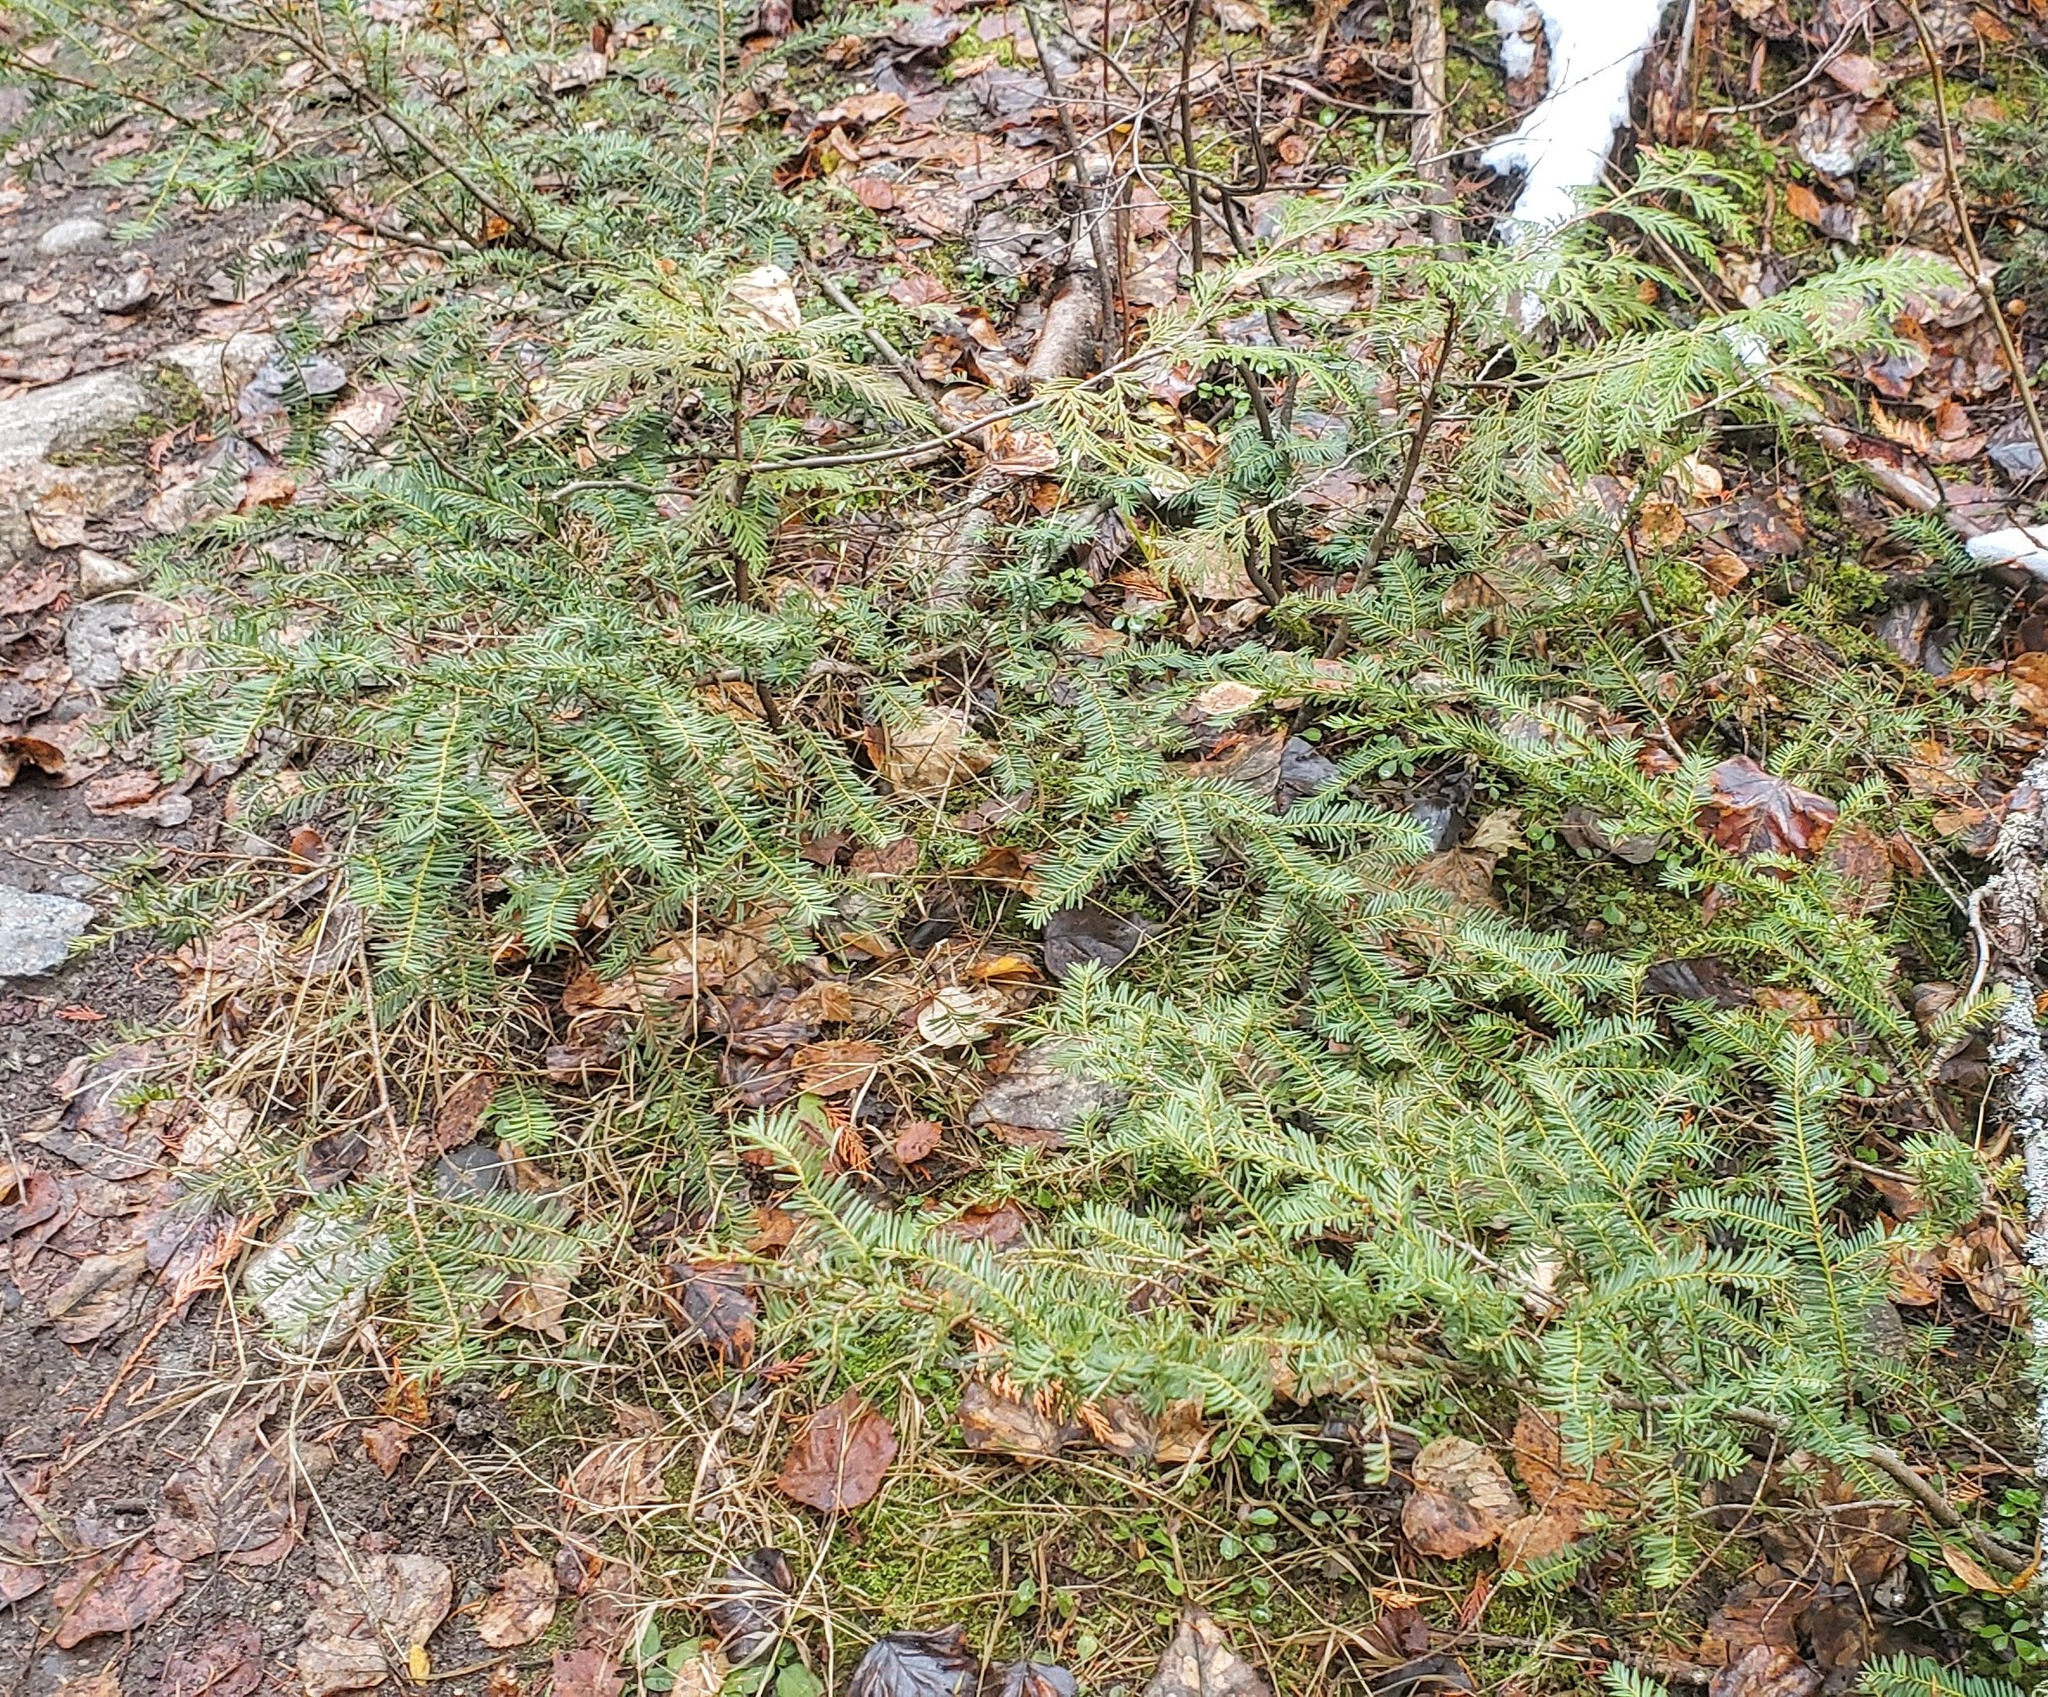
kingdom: Plantae
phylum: Tracheophyta
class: Pinopsida
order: Pinales
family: Taxaceae
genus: Taxus
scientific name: Taxus brevifolia
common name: Pacific yew
